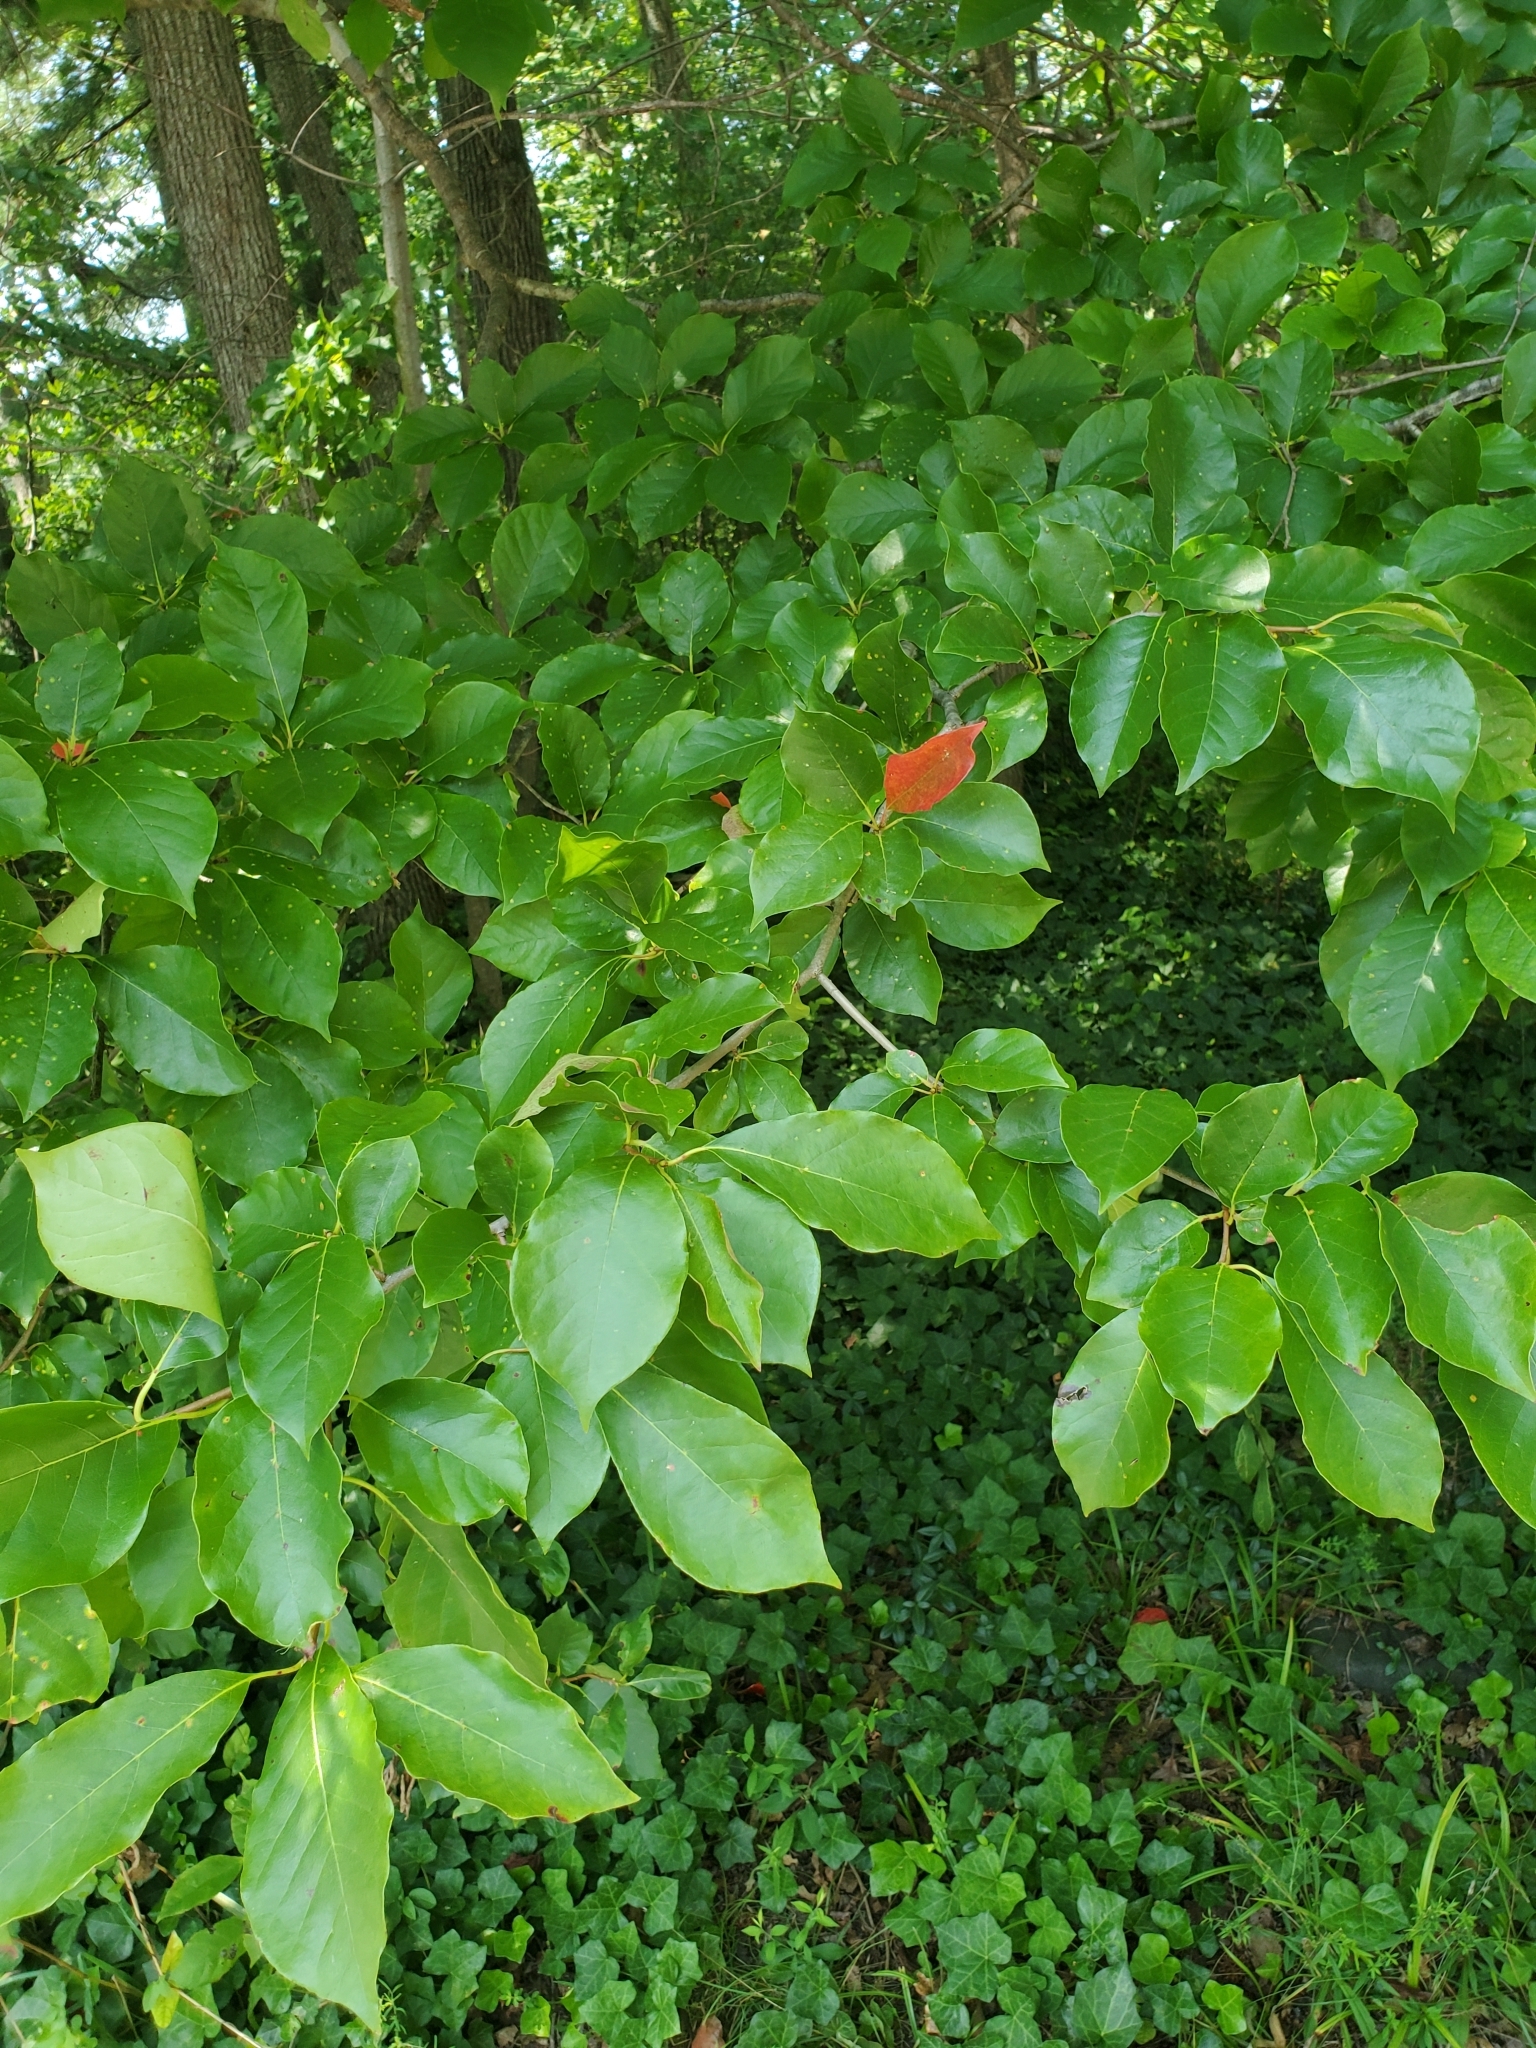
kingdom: Plantae
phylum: Tracheophyta
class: Magnoliopsida
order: Cornales
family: Nyssaceae
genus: Nyssa
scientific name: Nyssa sylvatica
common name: Black tupelo
